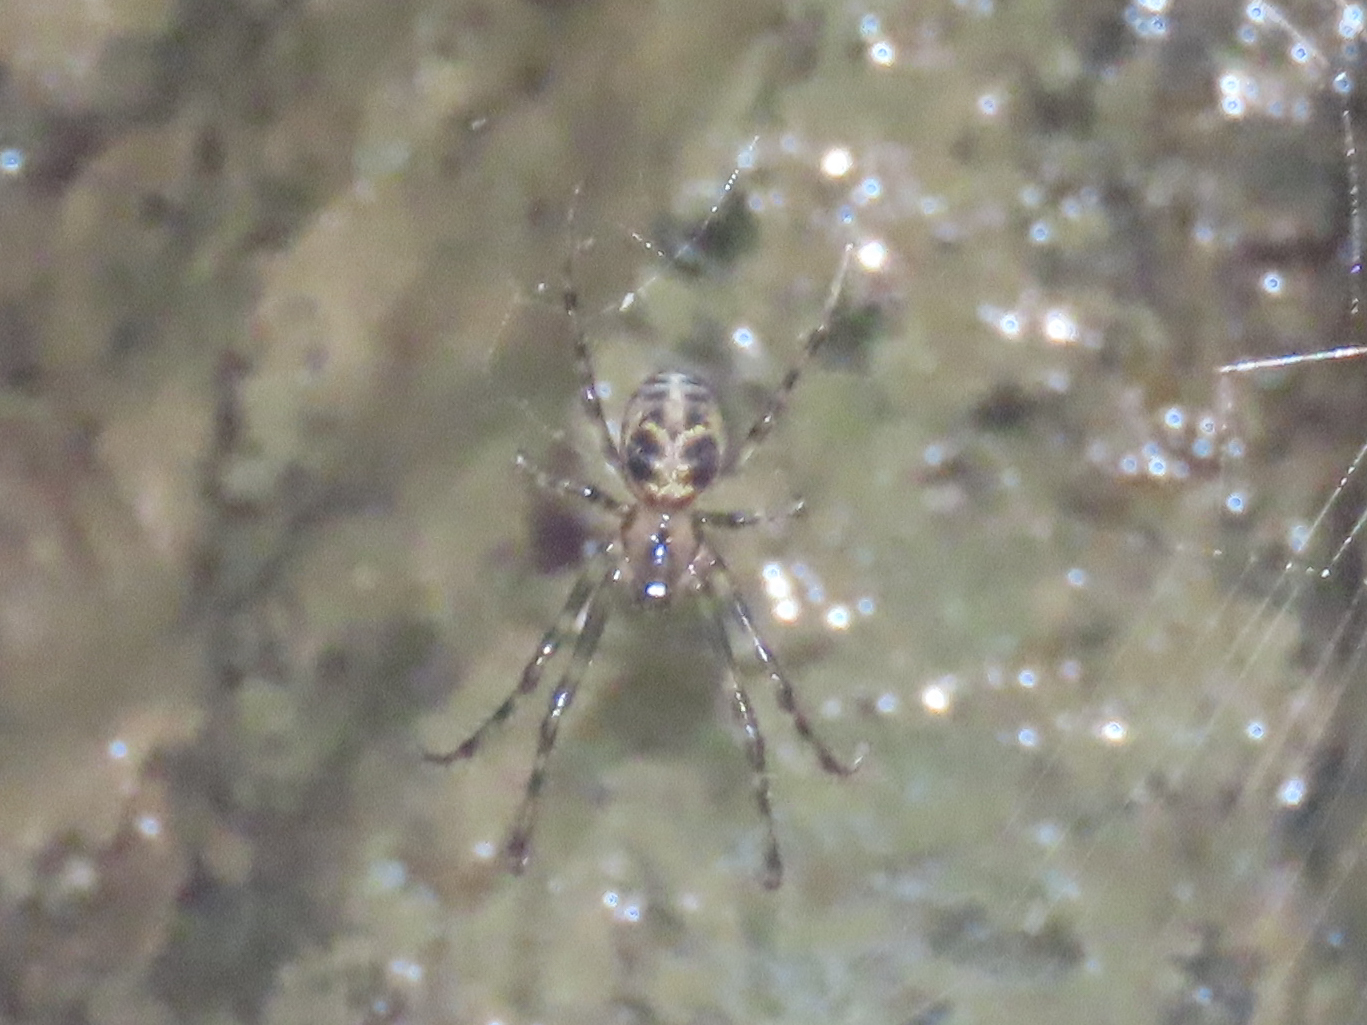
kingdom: Animalia
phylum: Arthropoda
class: Arachnida
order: Araneae
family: Tetragnathidae
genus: Meta
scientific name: Meta ovalis
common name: Eastern cave long-jawed spider
